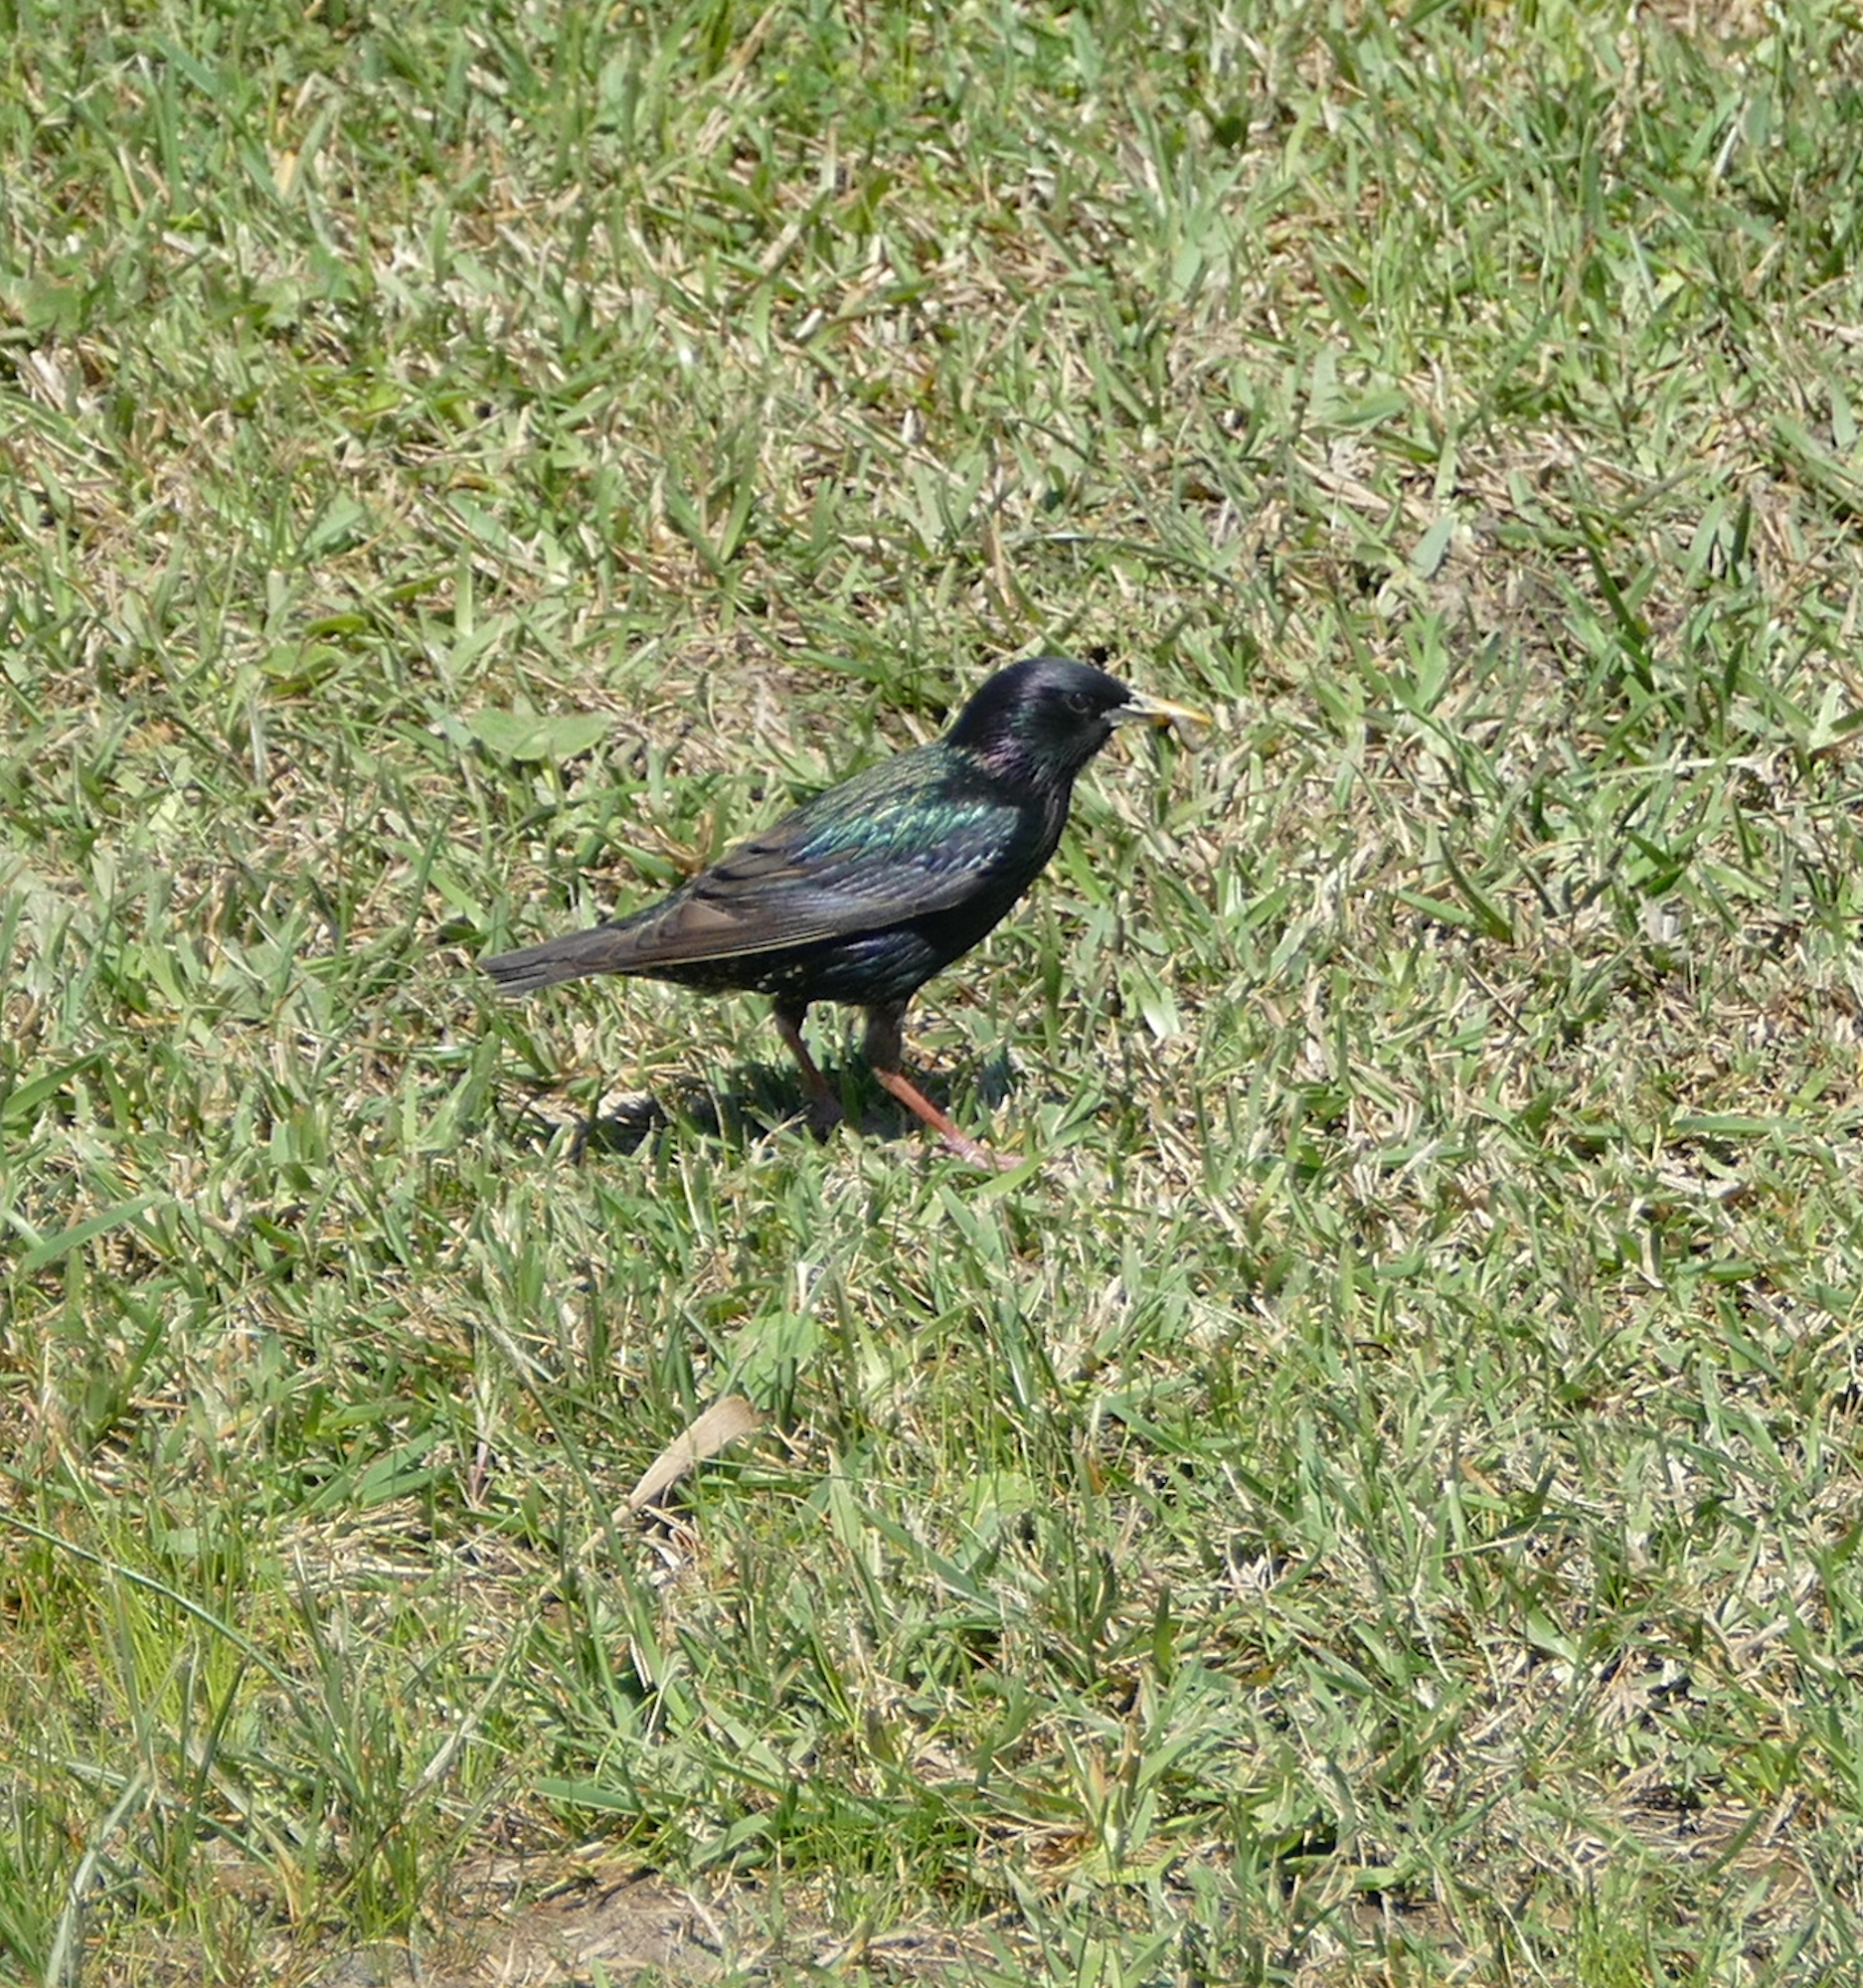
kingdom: Animalia
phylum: Chordata
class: Aves
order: Passeriformes
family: Sturnidae
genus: Sturnus
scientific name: Sturnus vulgaris
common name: Common starling
